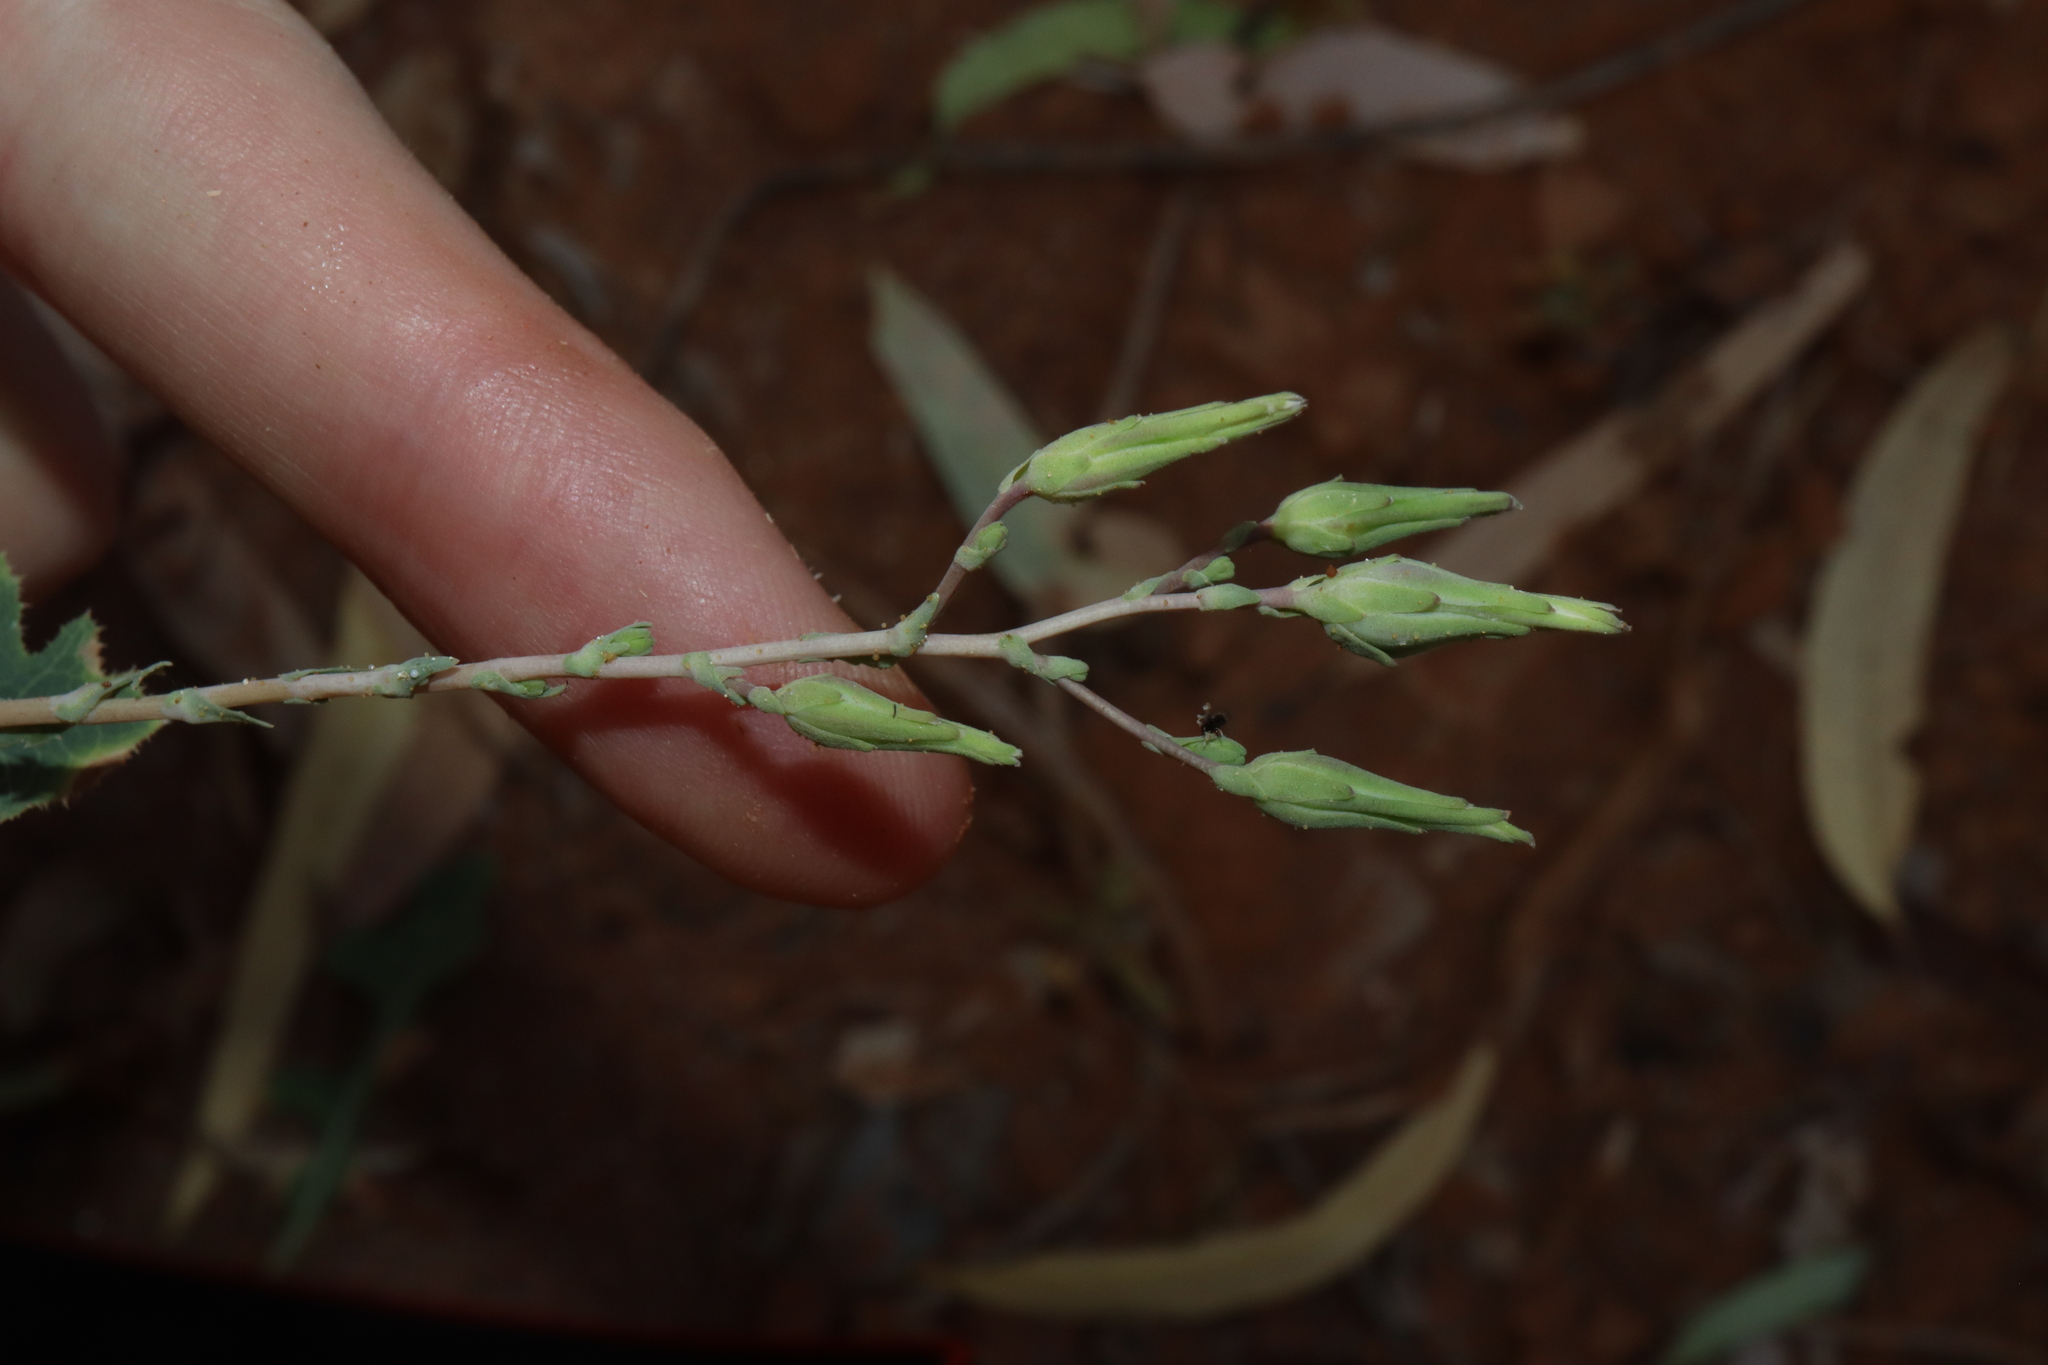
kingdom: Plantae
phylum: Tracheophyta
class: Magnoliopsida
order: Asterales
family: Asteraceae
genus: Lactuca
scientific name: Lactuca serriola
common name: Prickly lettuce
